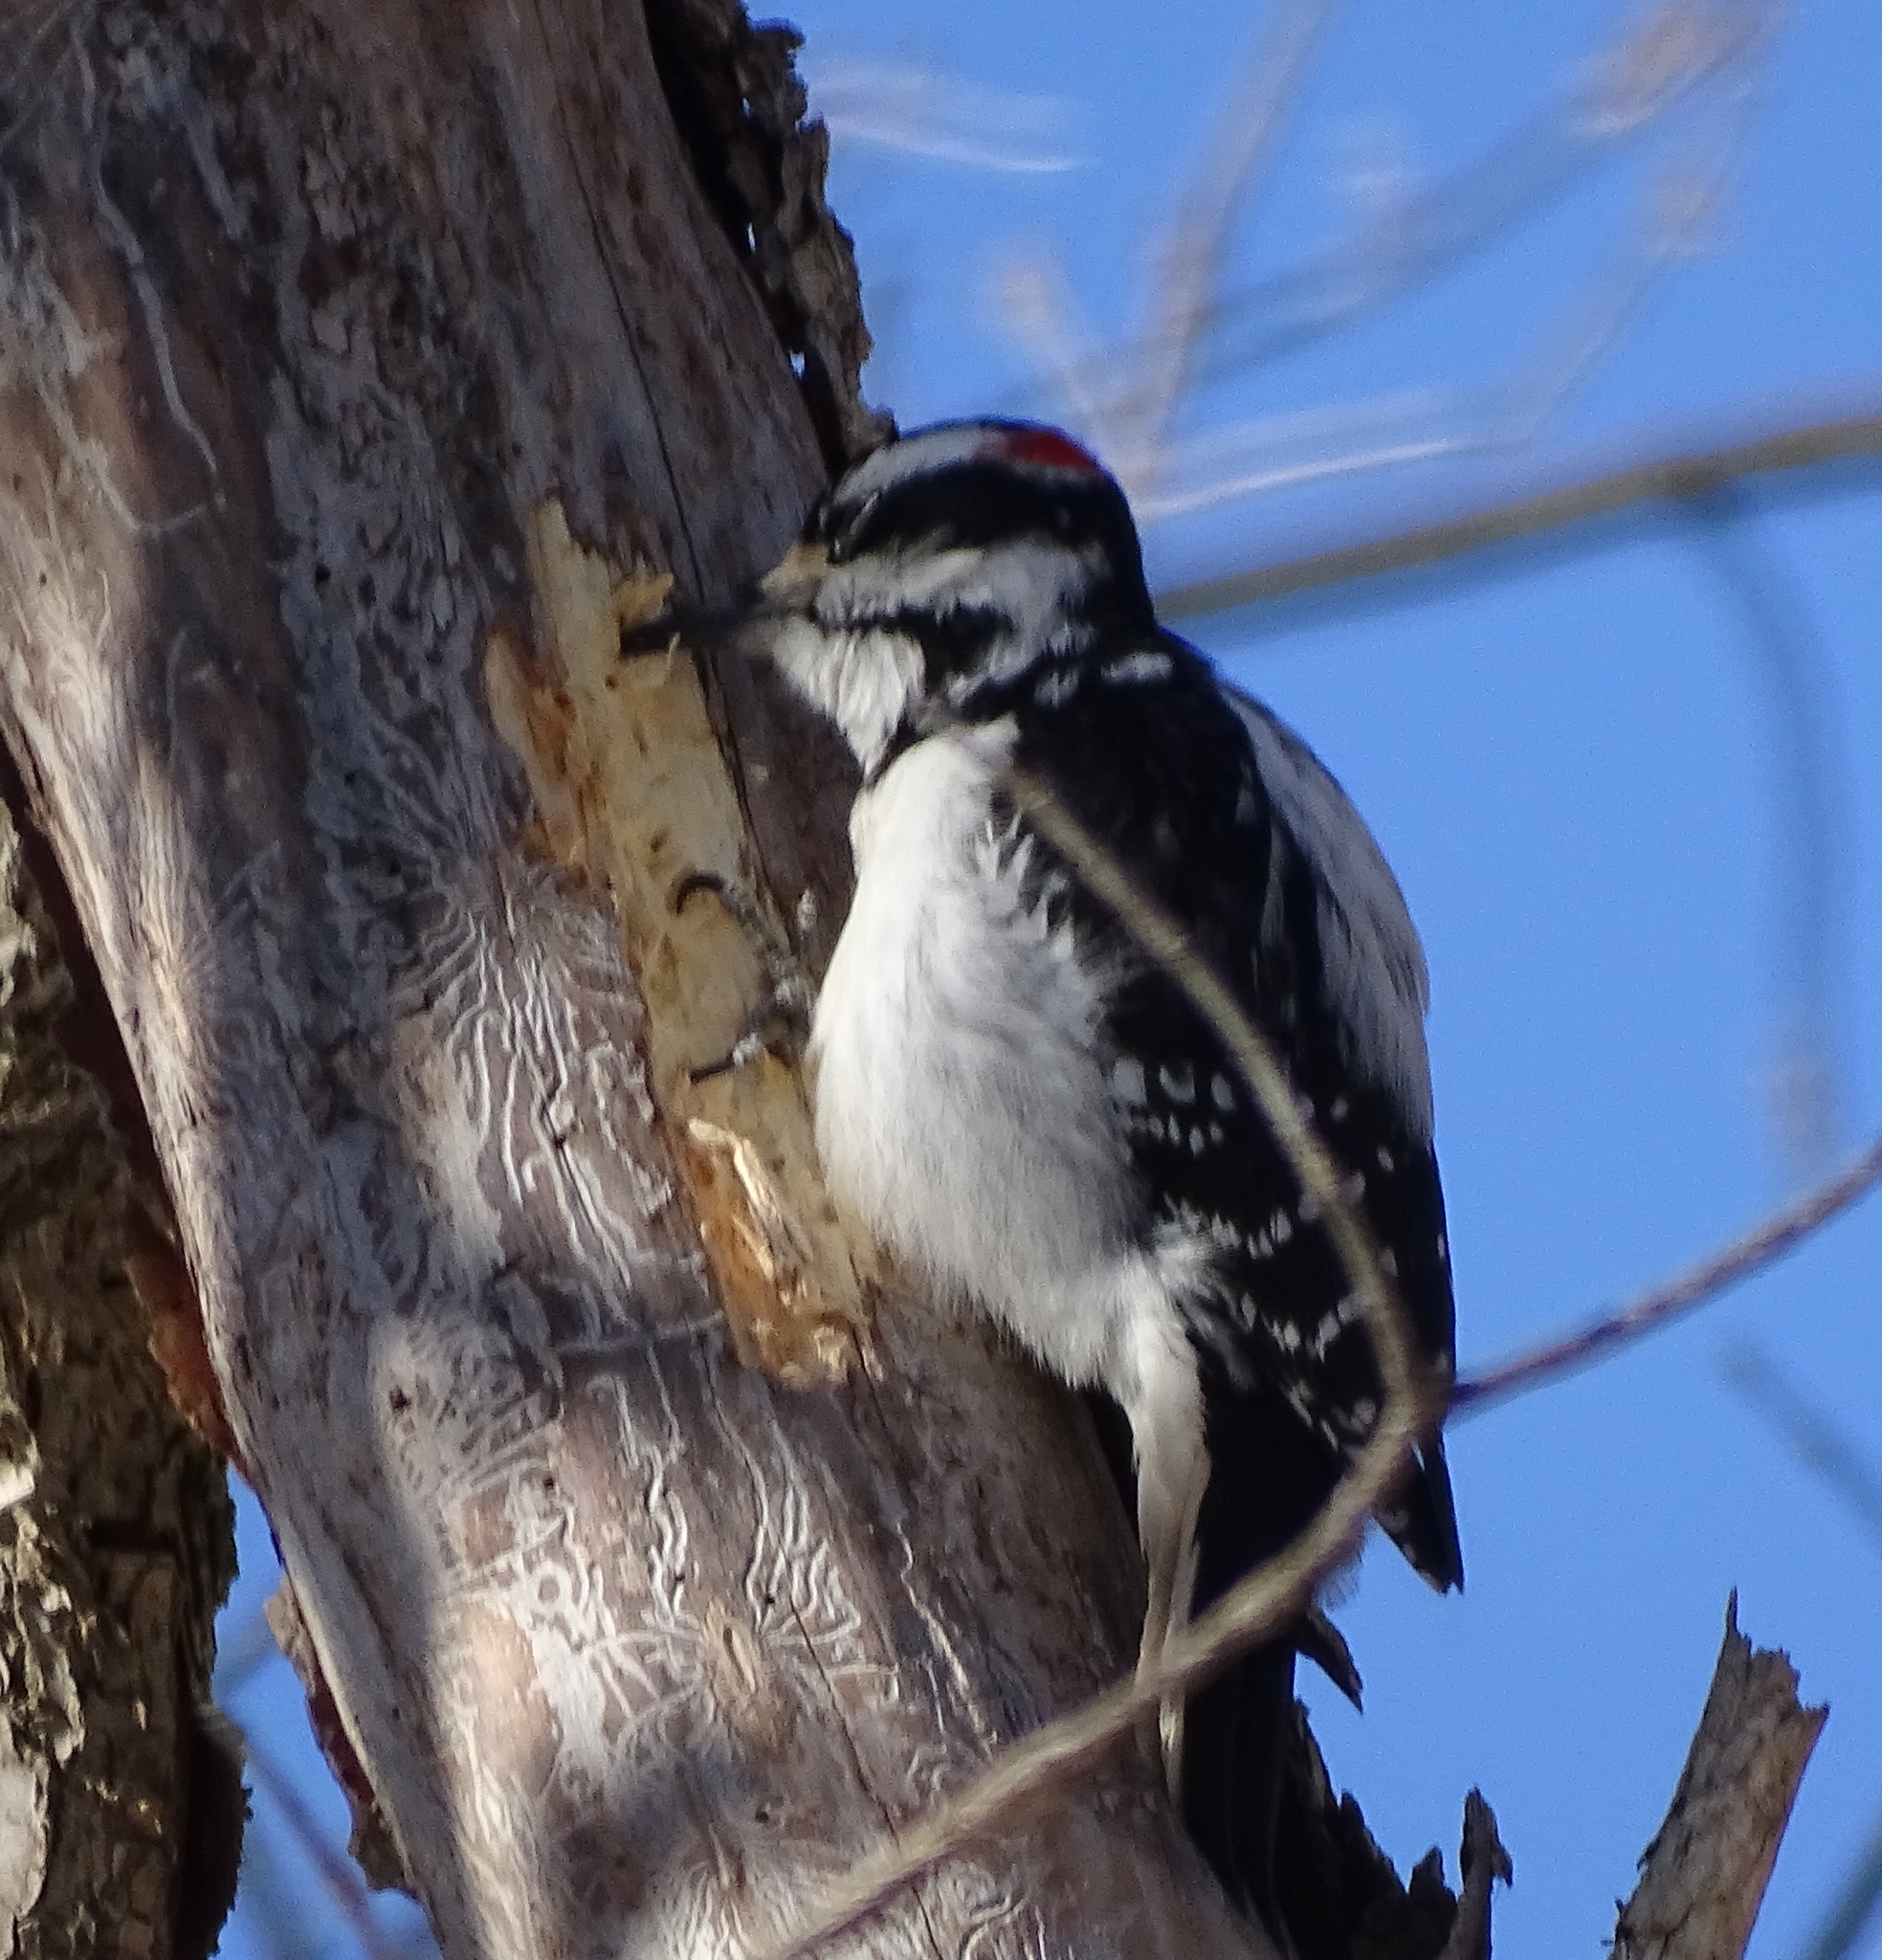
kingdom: Animalia
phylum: Chordata
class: Aves
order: Piciformes
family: Picidae
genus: Leuconotopicus
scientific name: Leuconotopicus villosus
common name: Hairy woodpecker
